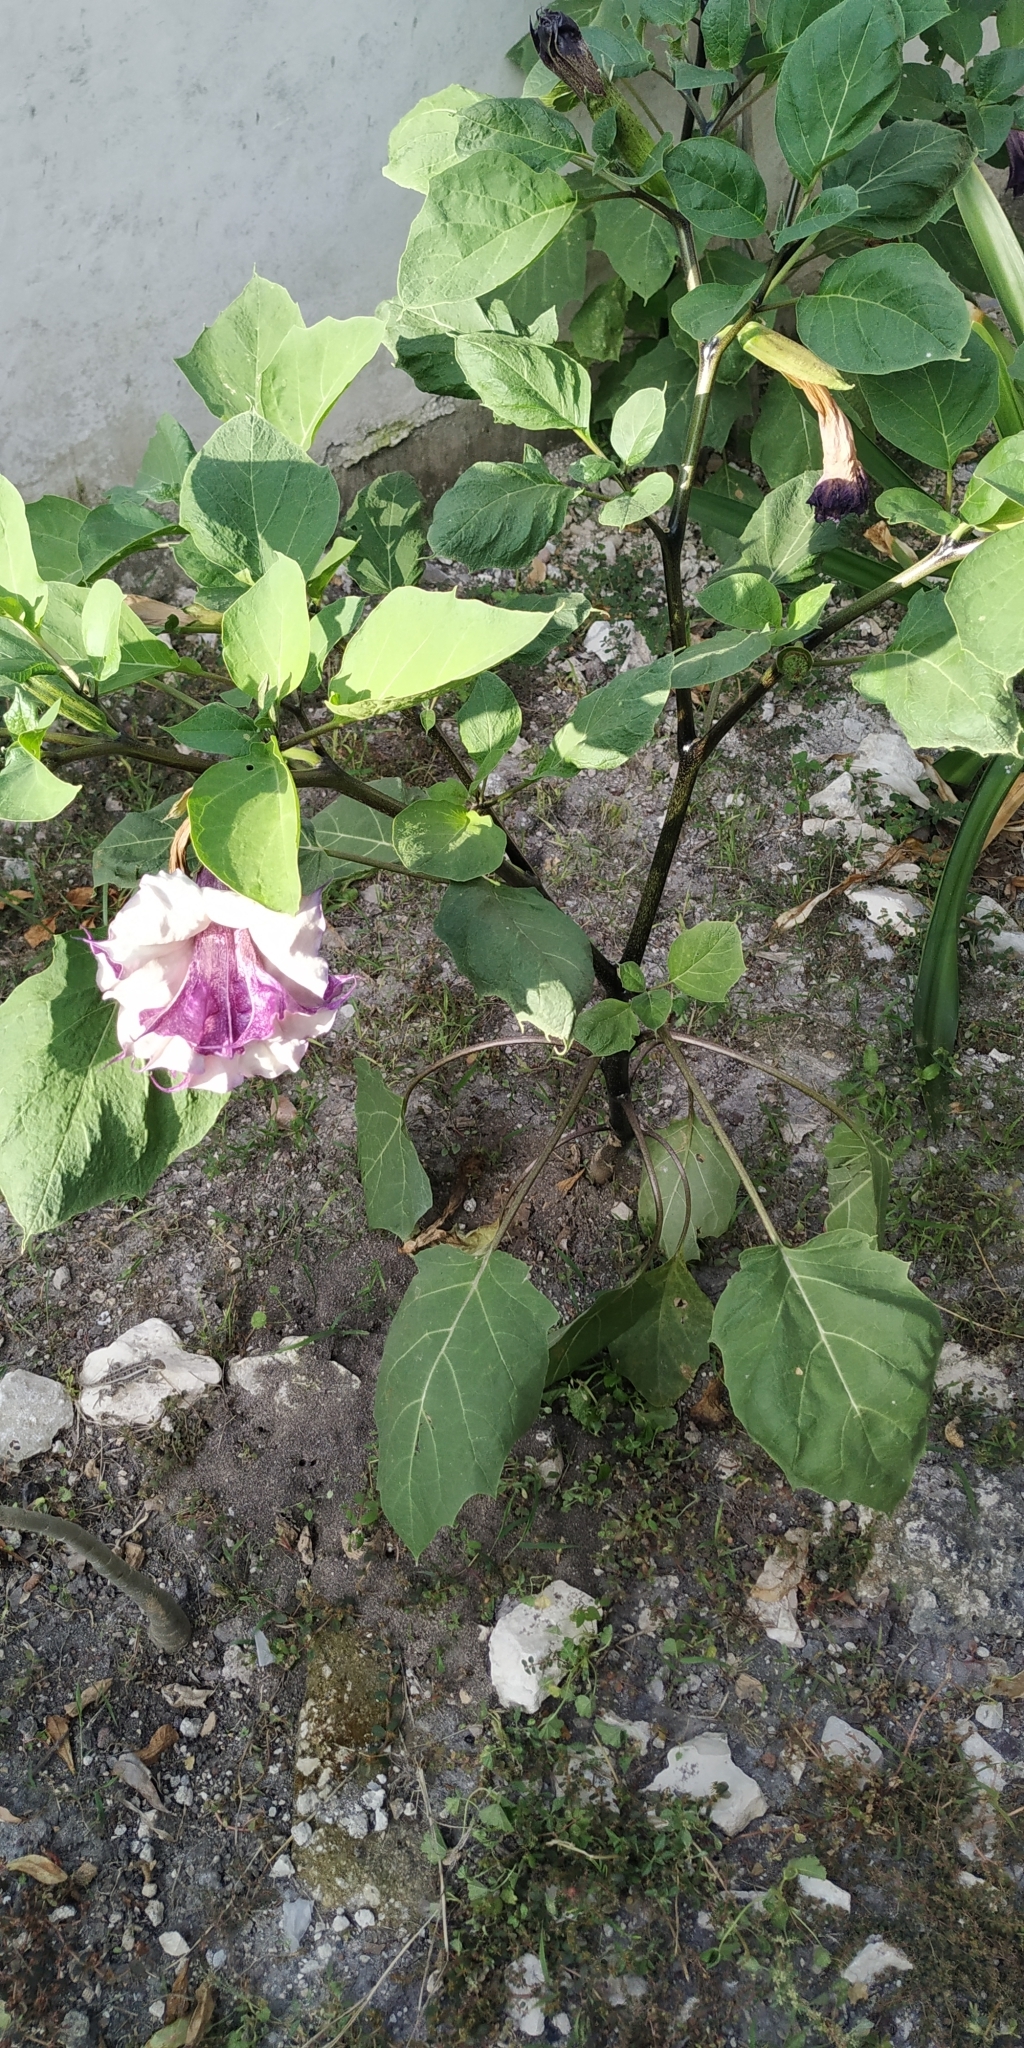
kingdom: Plantae
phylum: Tracheophyta
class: Magnoliopsida
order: Solanales
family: Solanaceae
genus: Datura
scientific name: Datura metel
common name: Jimsonweed
